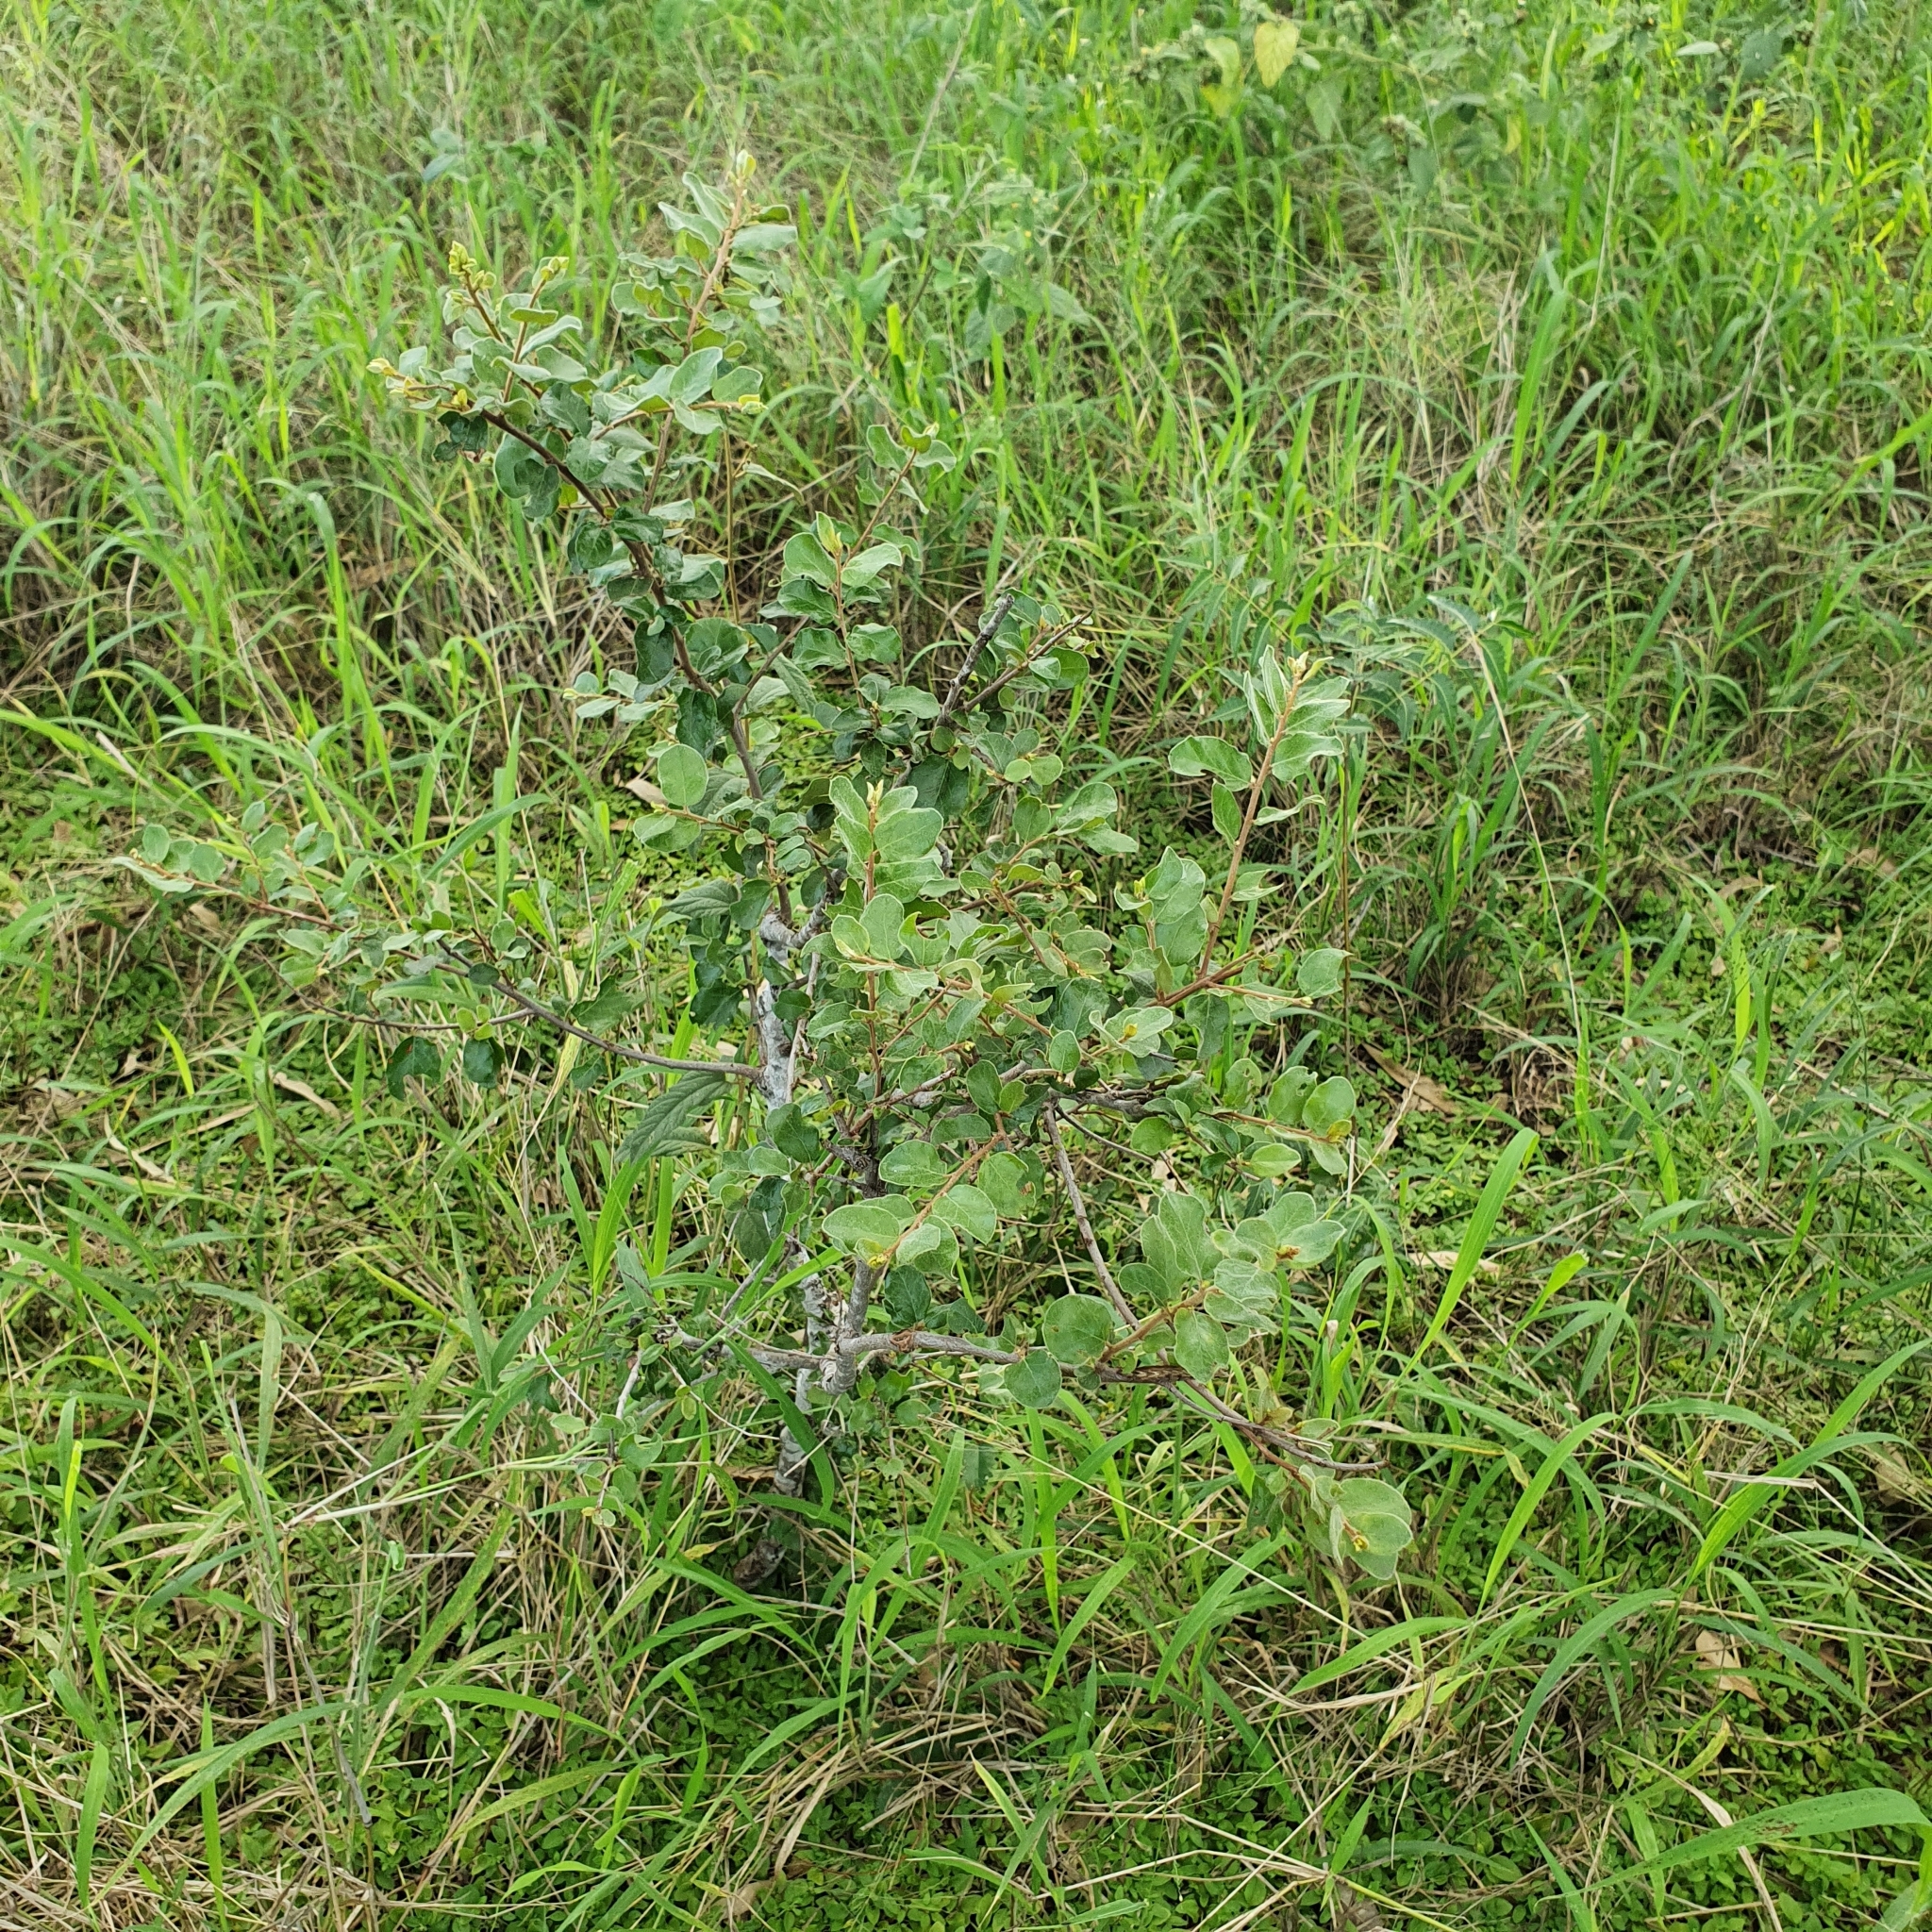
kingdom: Plantae
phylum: Tracheophyta
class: Magnoliopsida
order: Malpighiales
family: Picrodendraceae
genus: Petalostigma
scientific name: Petalostigma pubescens
